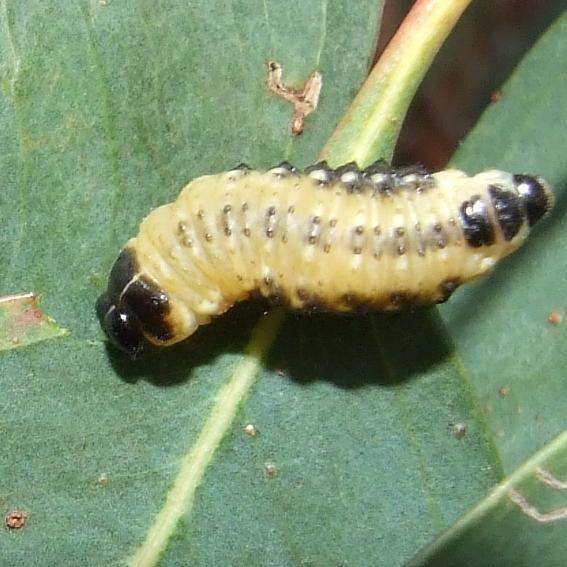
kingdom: Animalia
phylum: Arthropoda
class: Insecta
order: Coleoptera
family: Chrysomelidae
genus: Paropsis
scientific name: Paropsis
